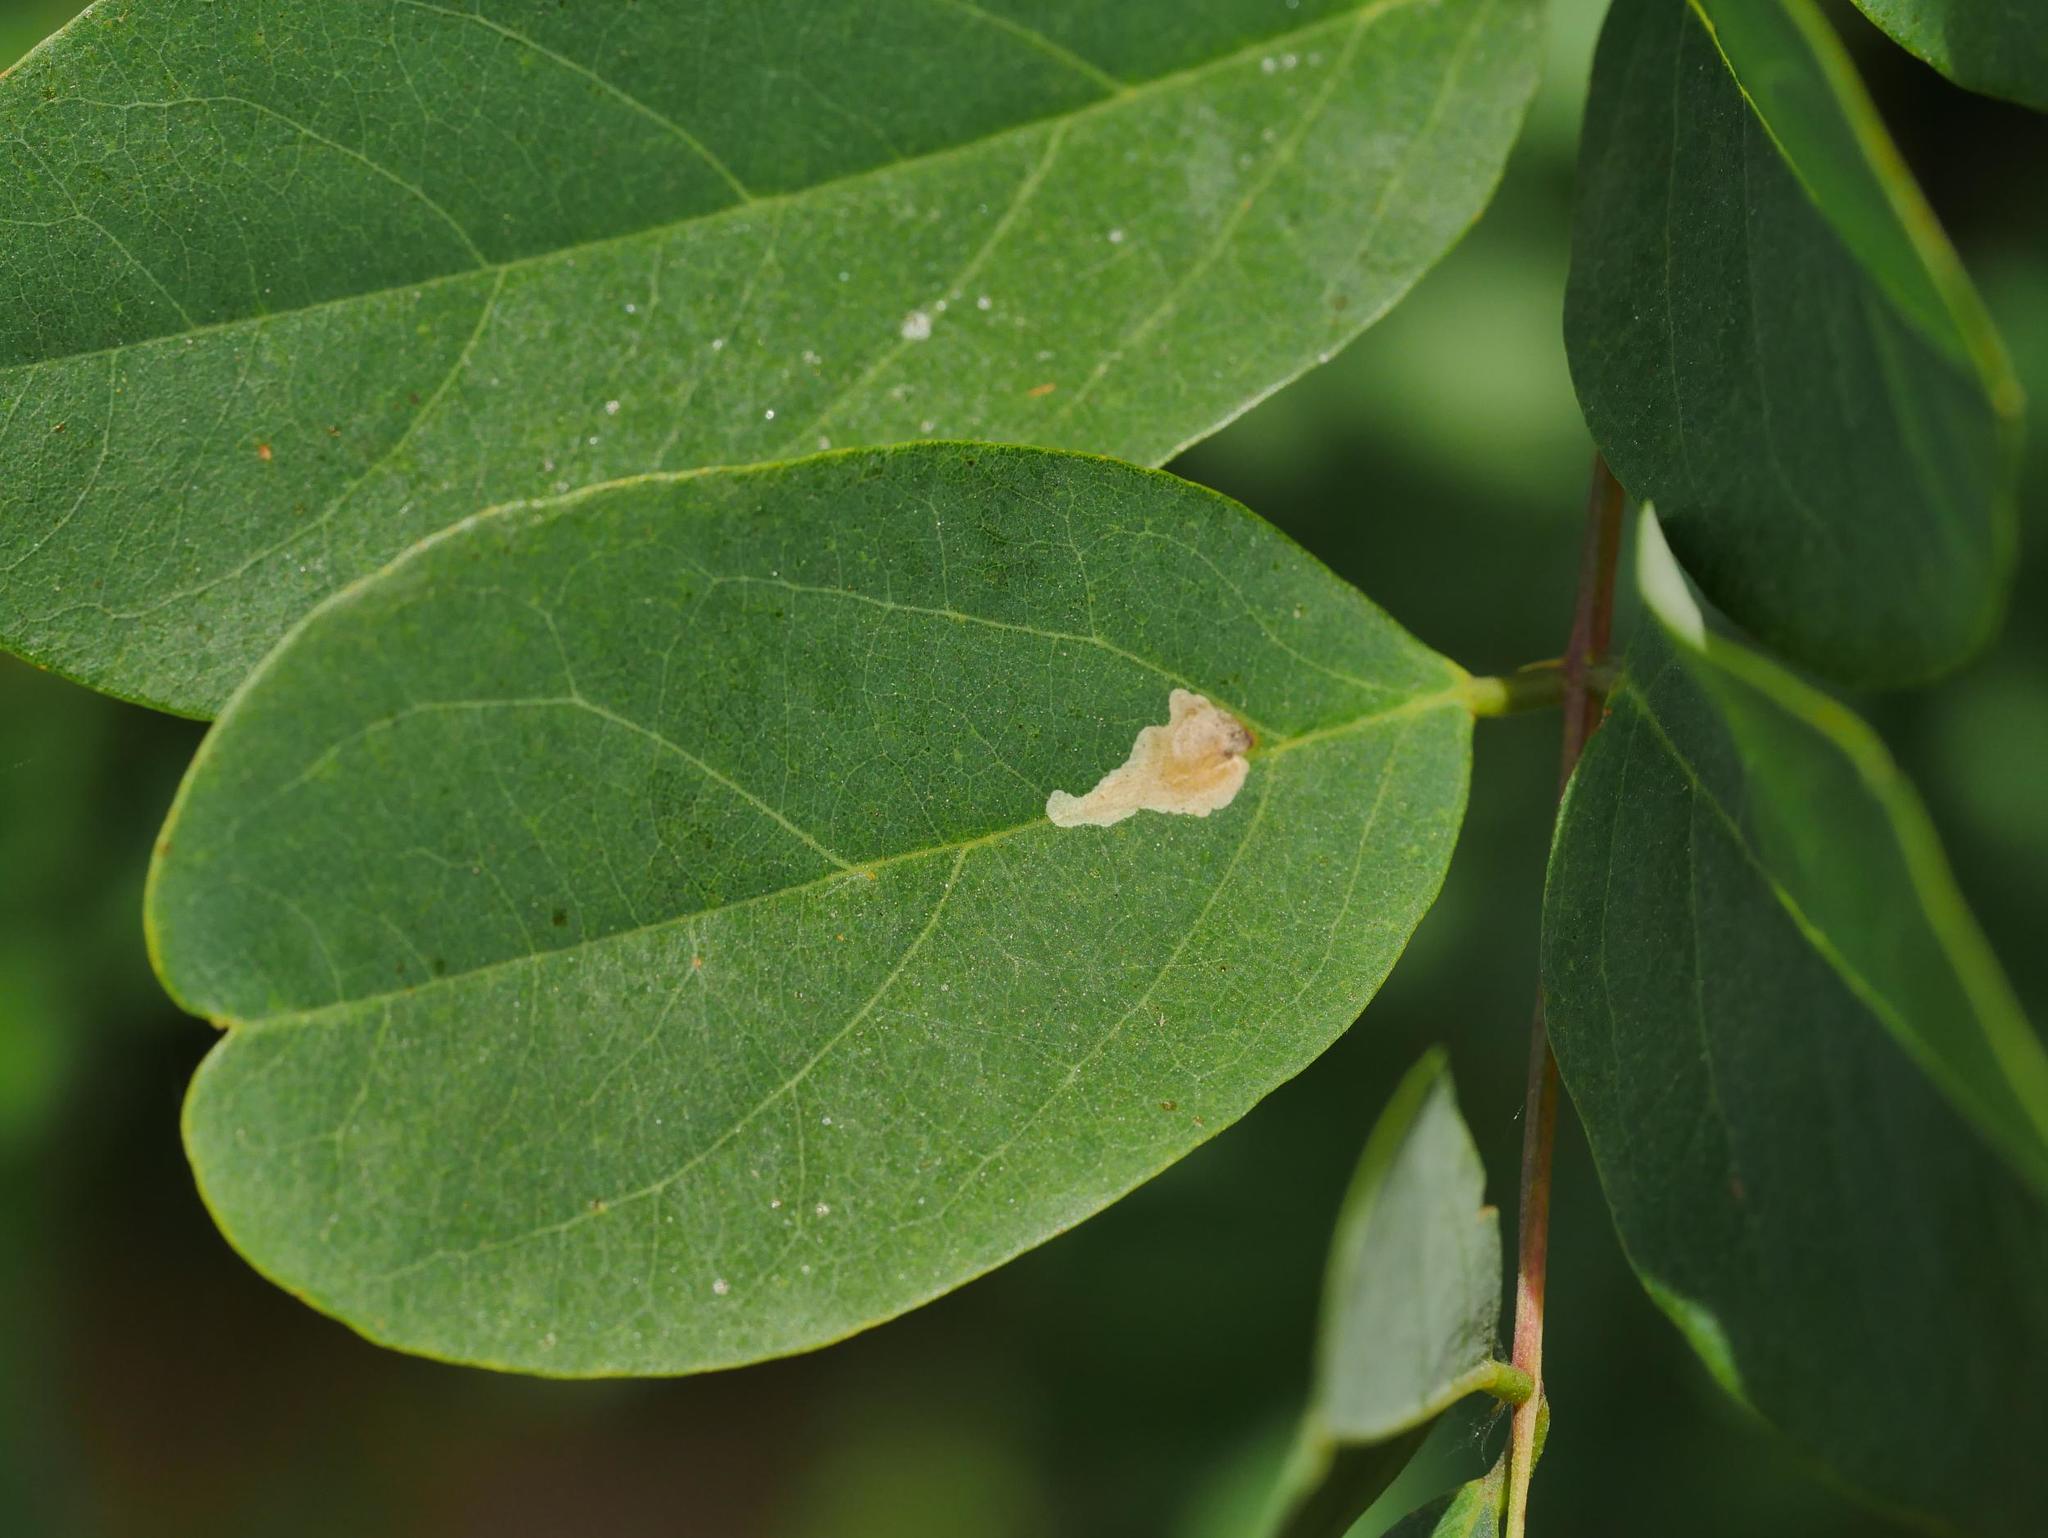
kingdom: Animalia
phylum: Arthropoda
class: Insecta
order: Lepidoptera
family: Gracillariidae
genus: Parectopa
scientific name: Parectopa robiniella
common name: Locust digitate leafminer
